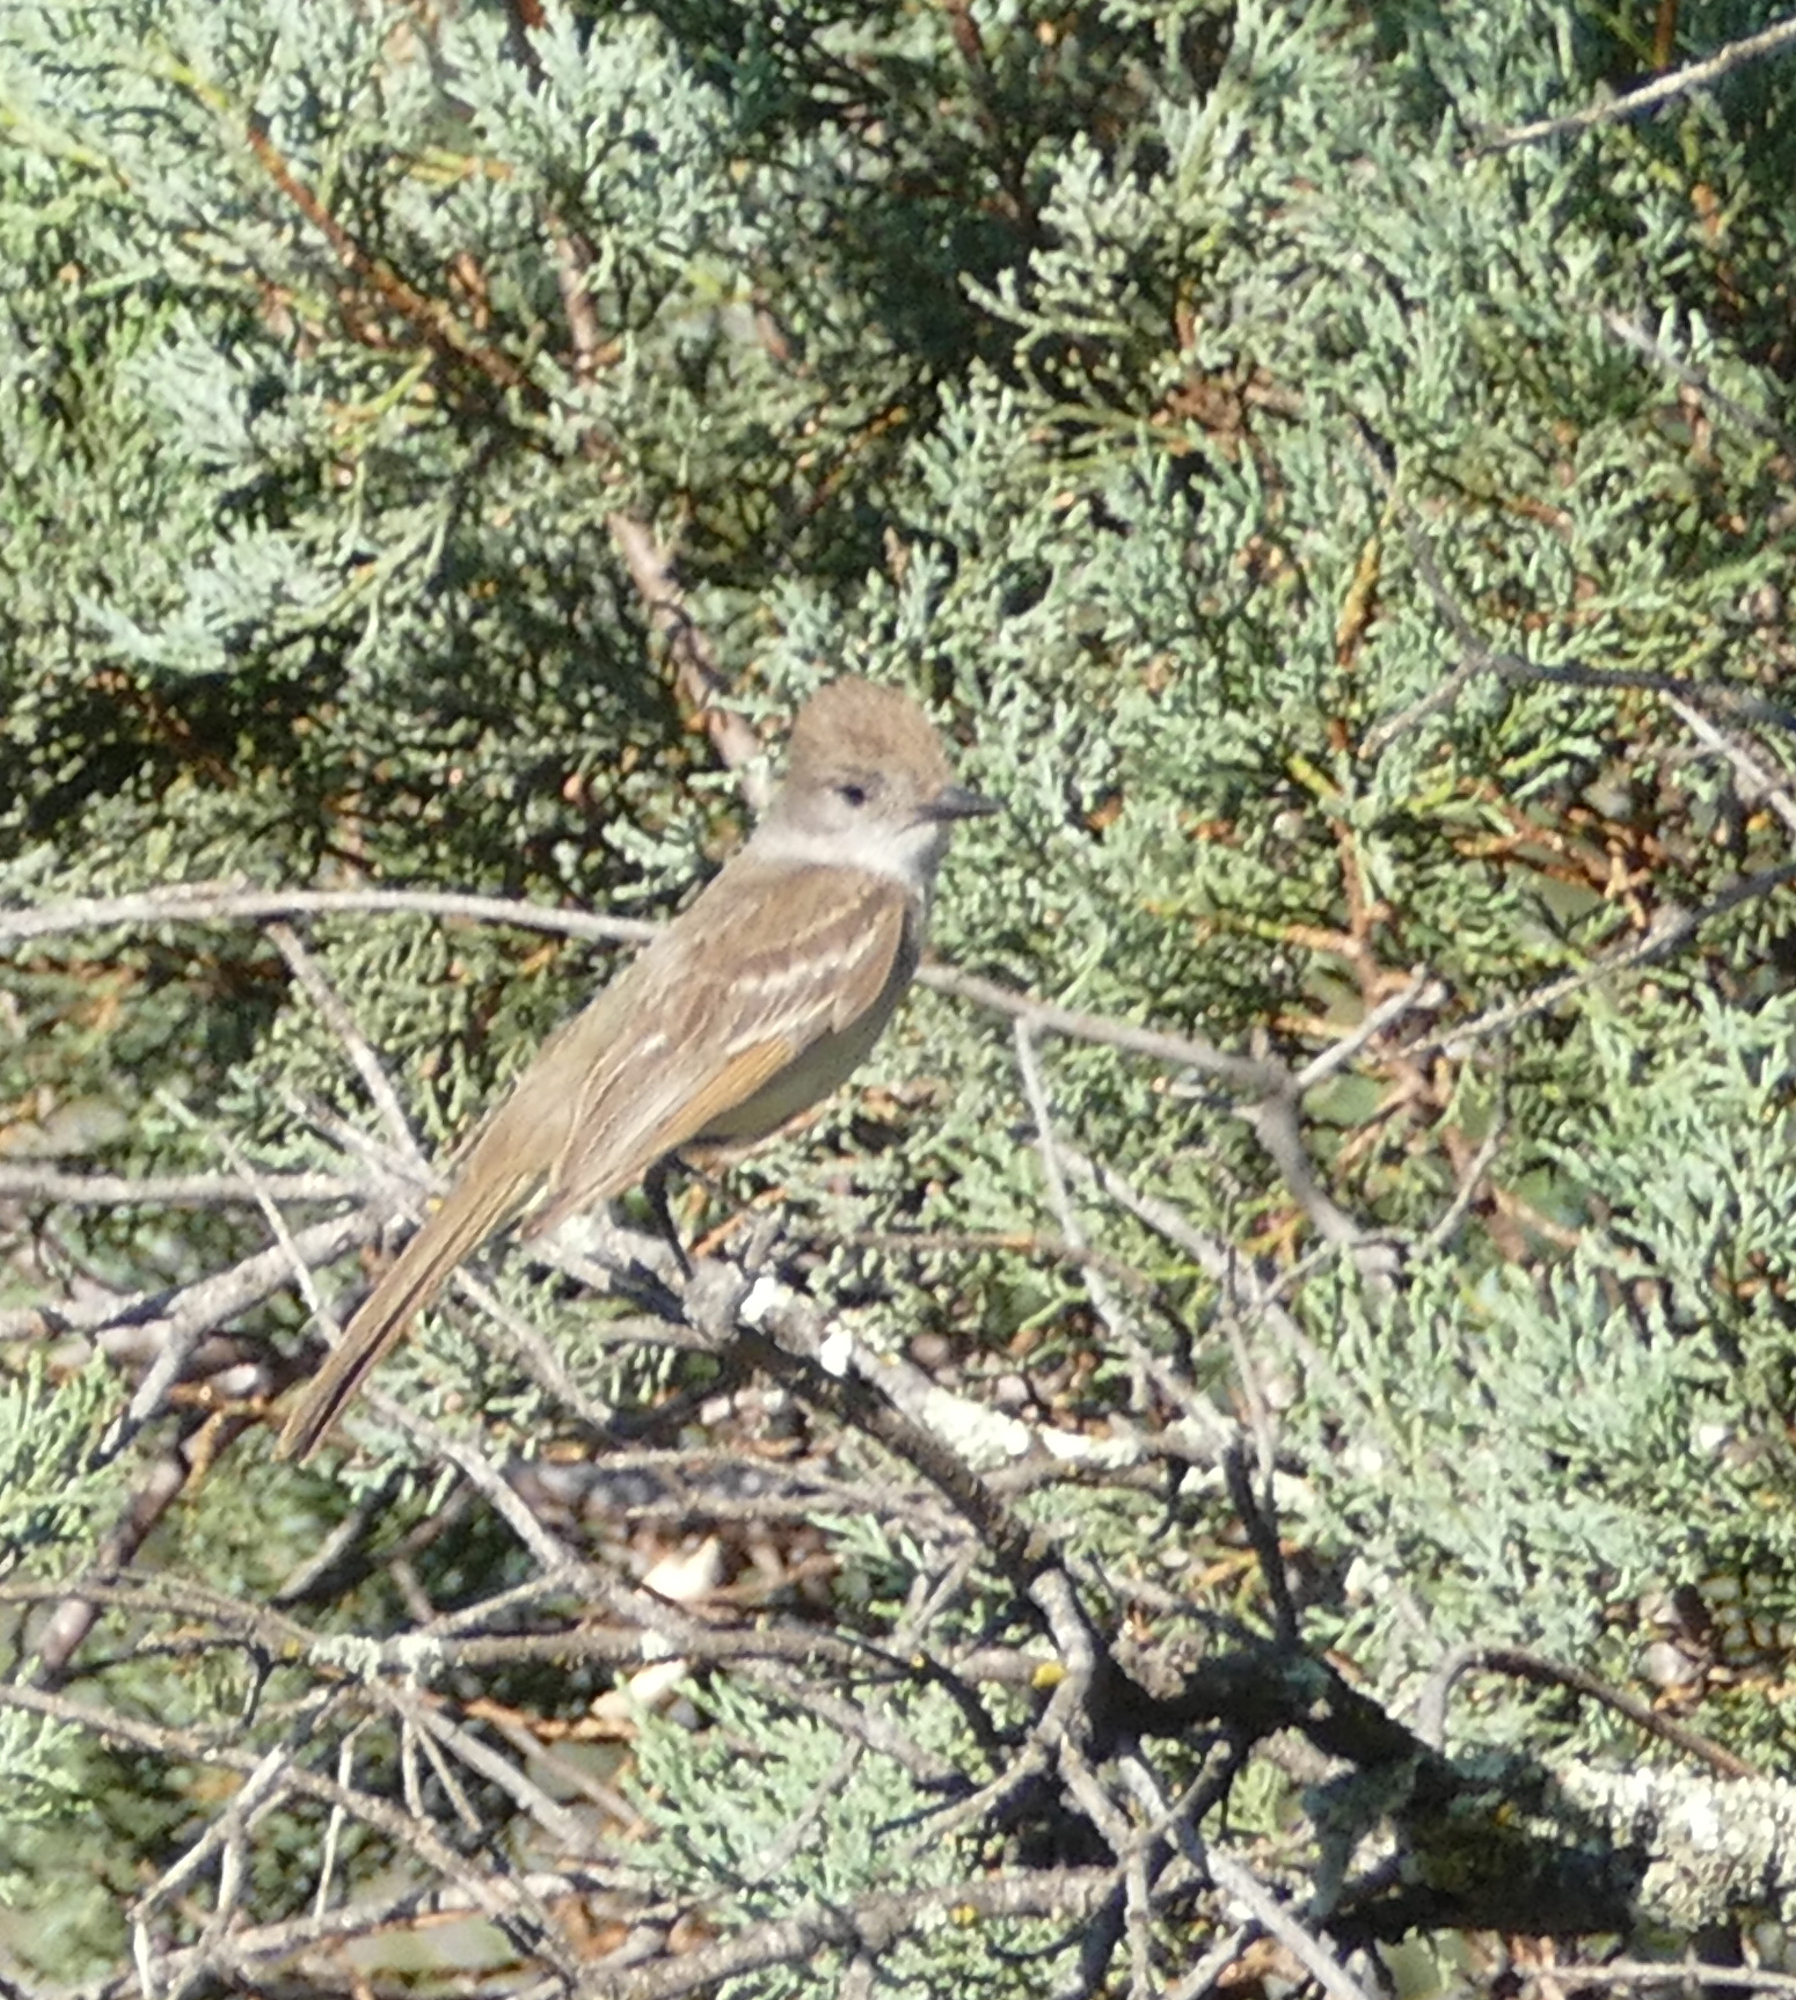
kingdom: Animalia
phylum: Chordata
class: Aves
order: Passeriformes
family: Tyrannidae
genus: Myiarchus
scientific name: Myiarchus cinerascens
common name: Ash-throated flycatcher
